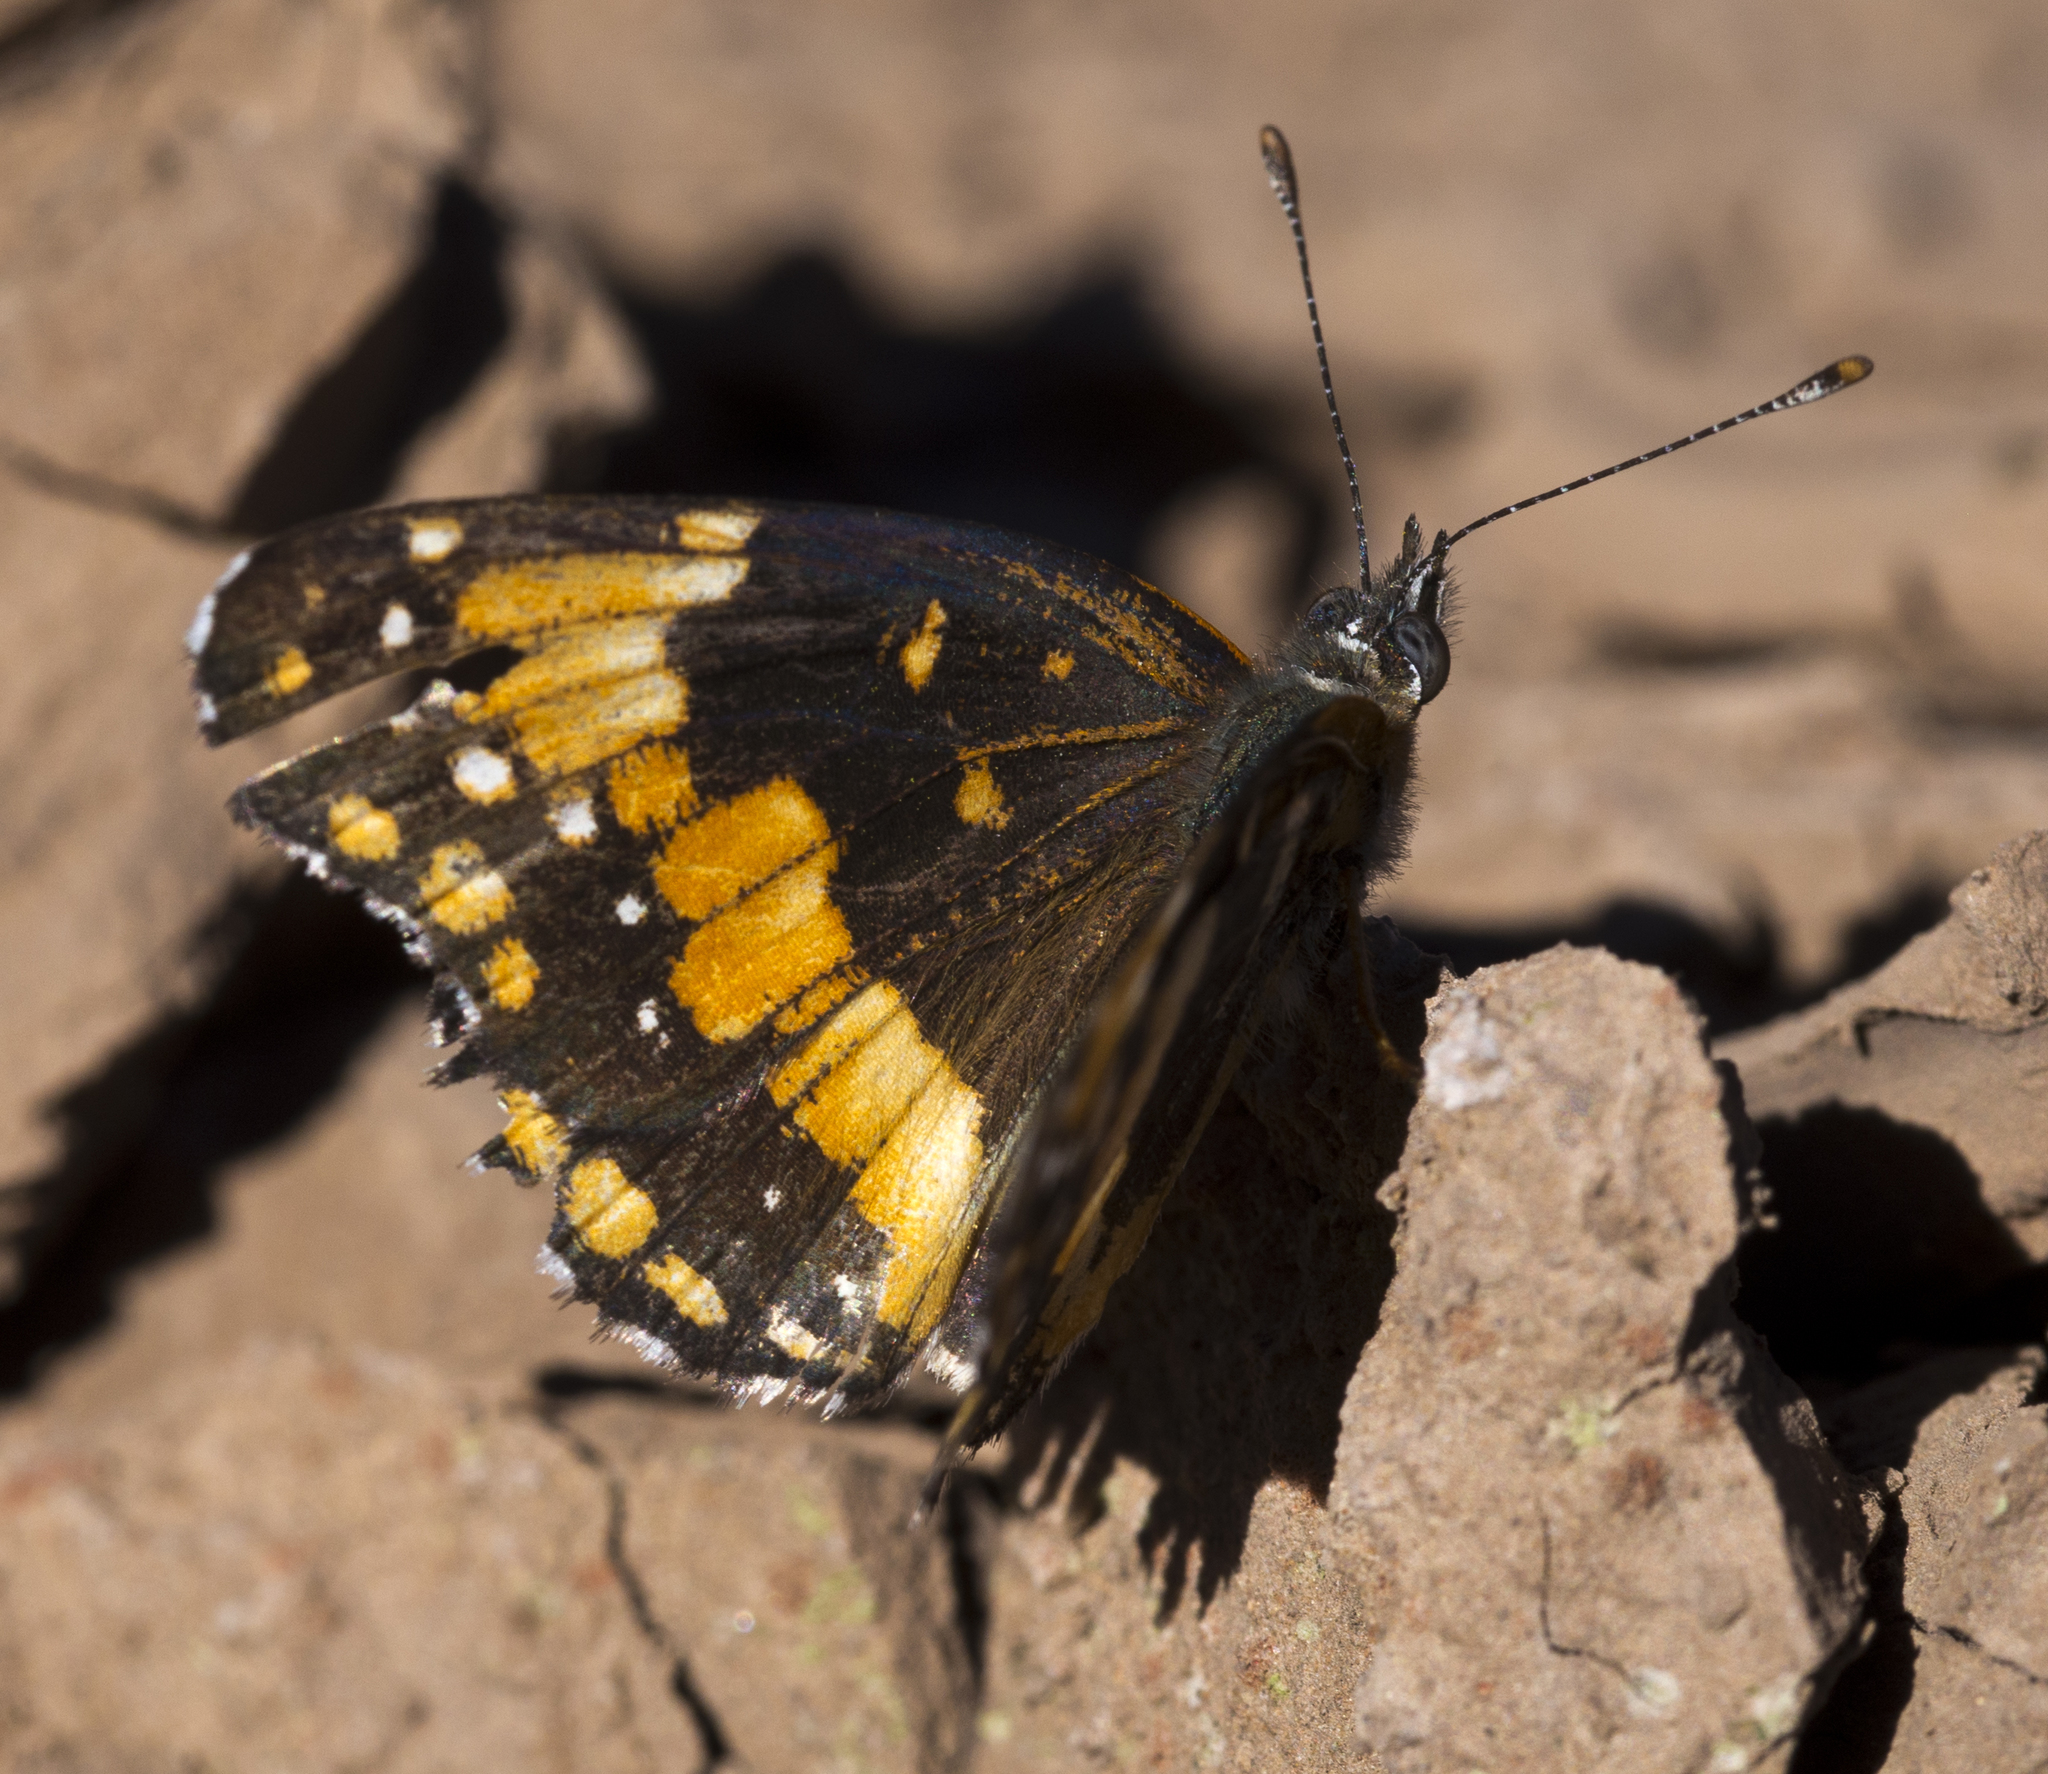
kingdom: Animalia
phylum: Arthropoda
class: Insecta
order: Lepidoptera
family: Nymphalidae
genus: Chlosyne
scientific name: Chlosyne californica
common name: California patch
